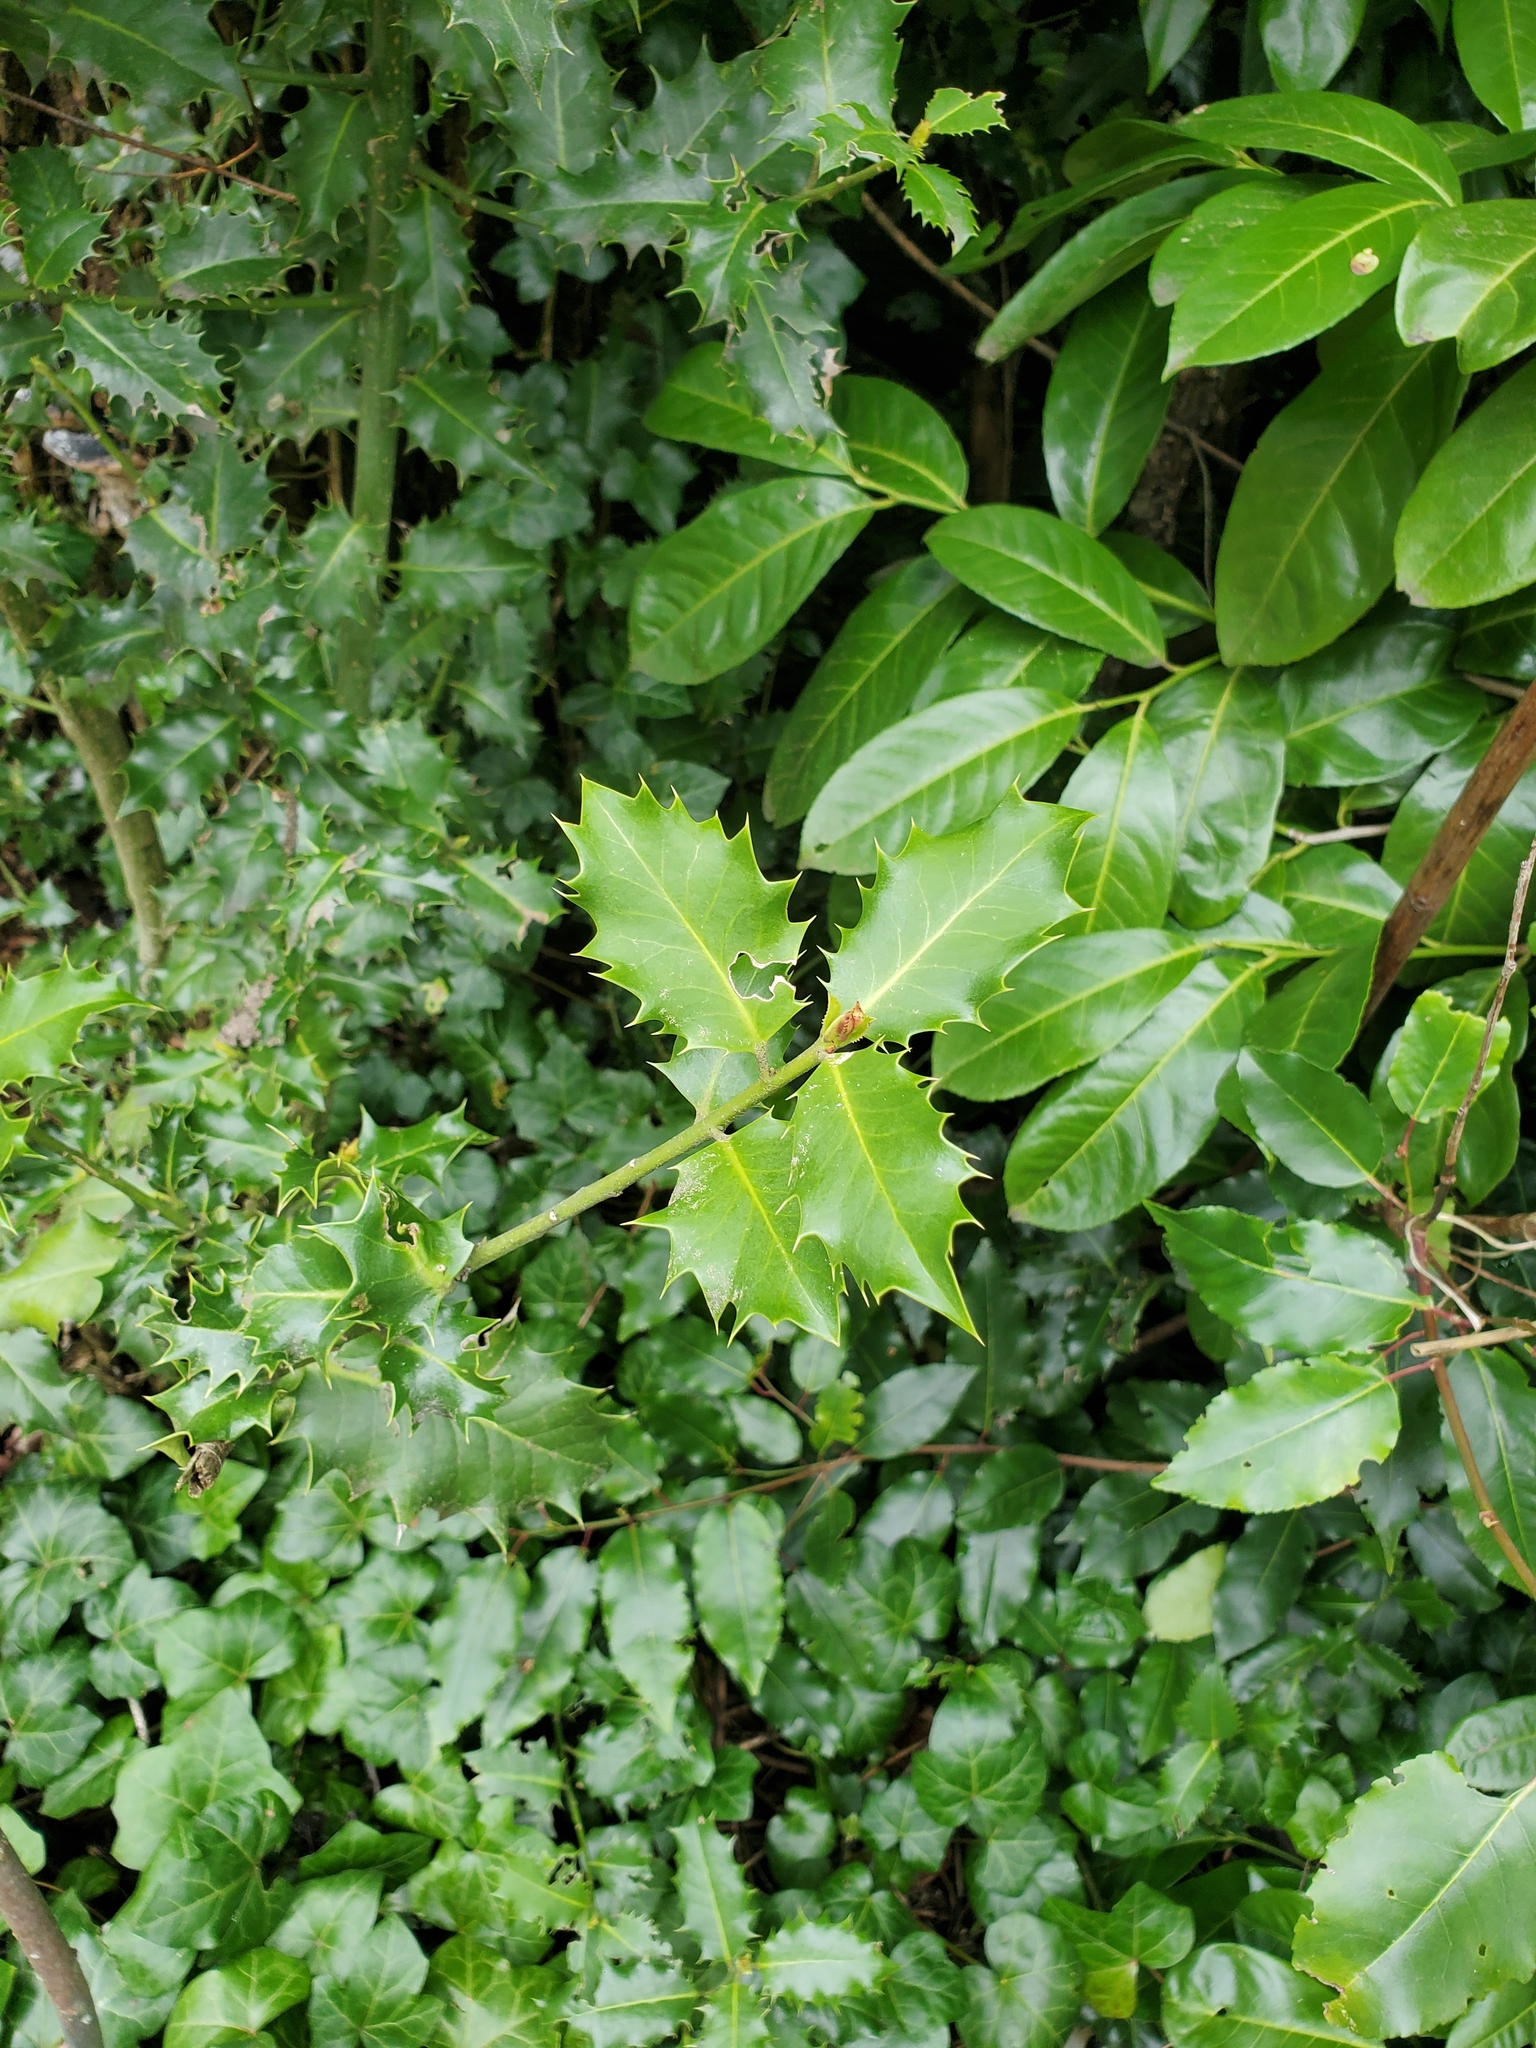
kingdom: Plantae
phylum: Tracheophyta
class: Magnoliopsida
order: Aquifoliales
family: Aquifoliaceae
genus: Ilex
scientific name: Ilex aquifolium
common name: English holly
